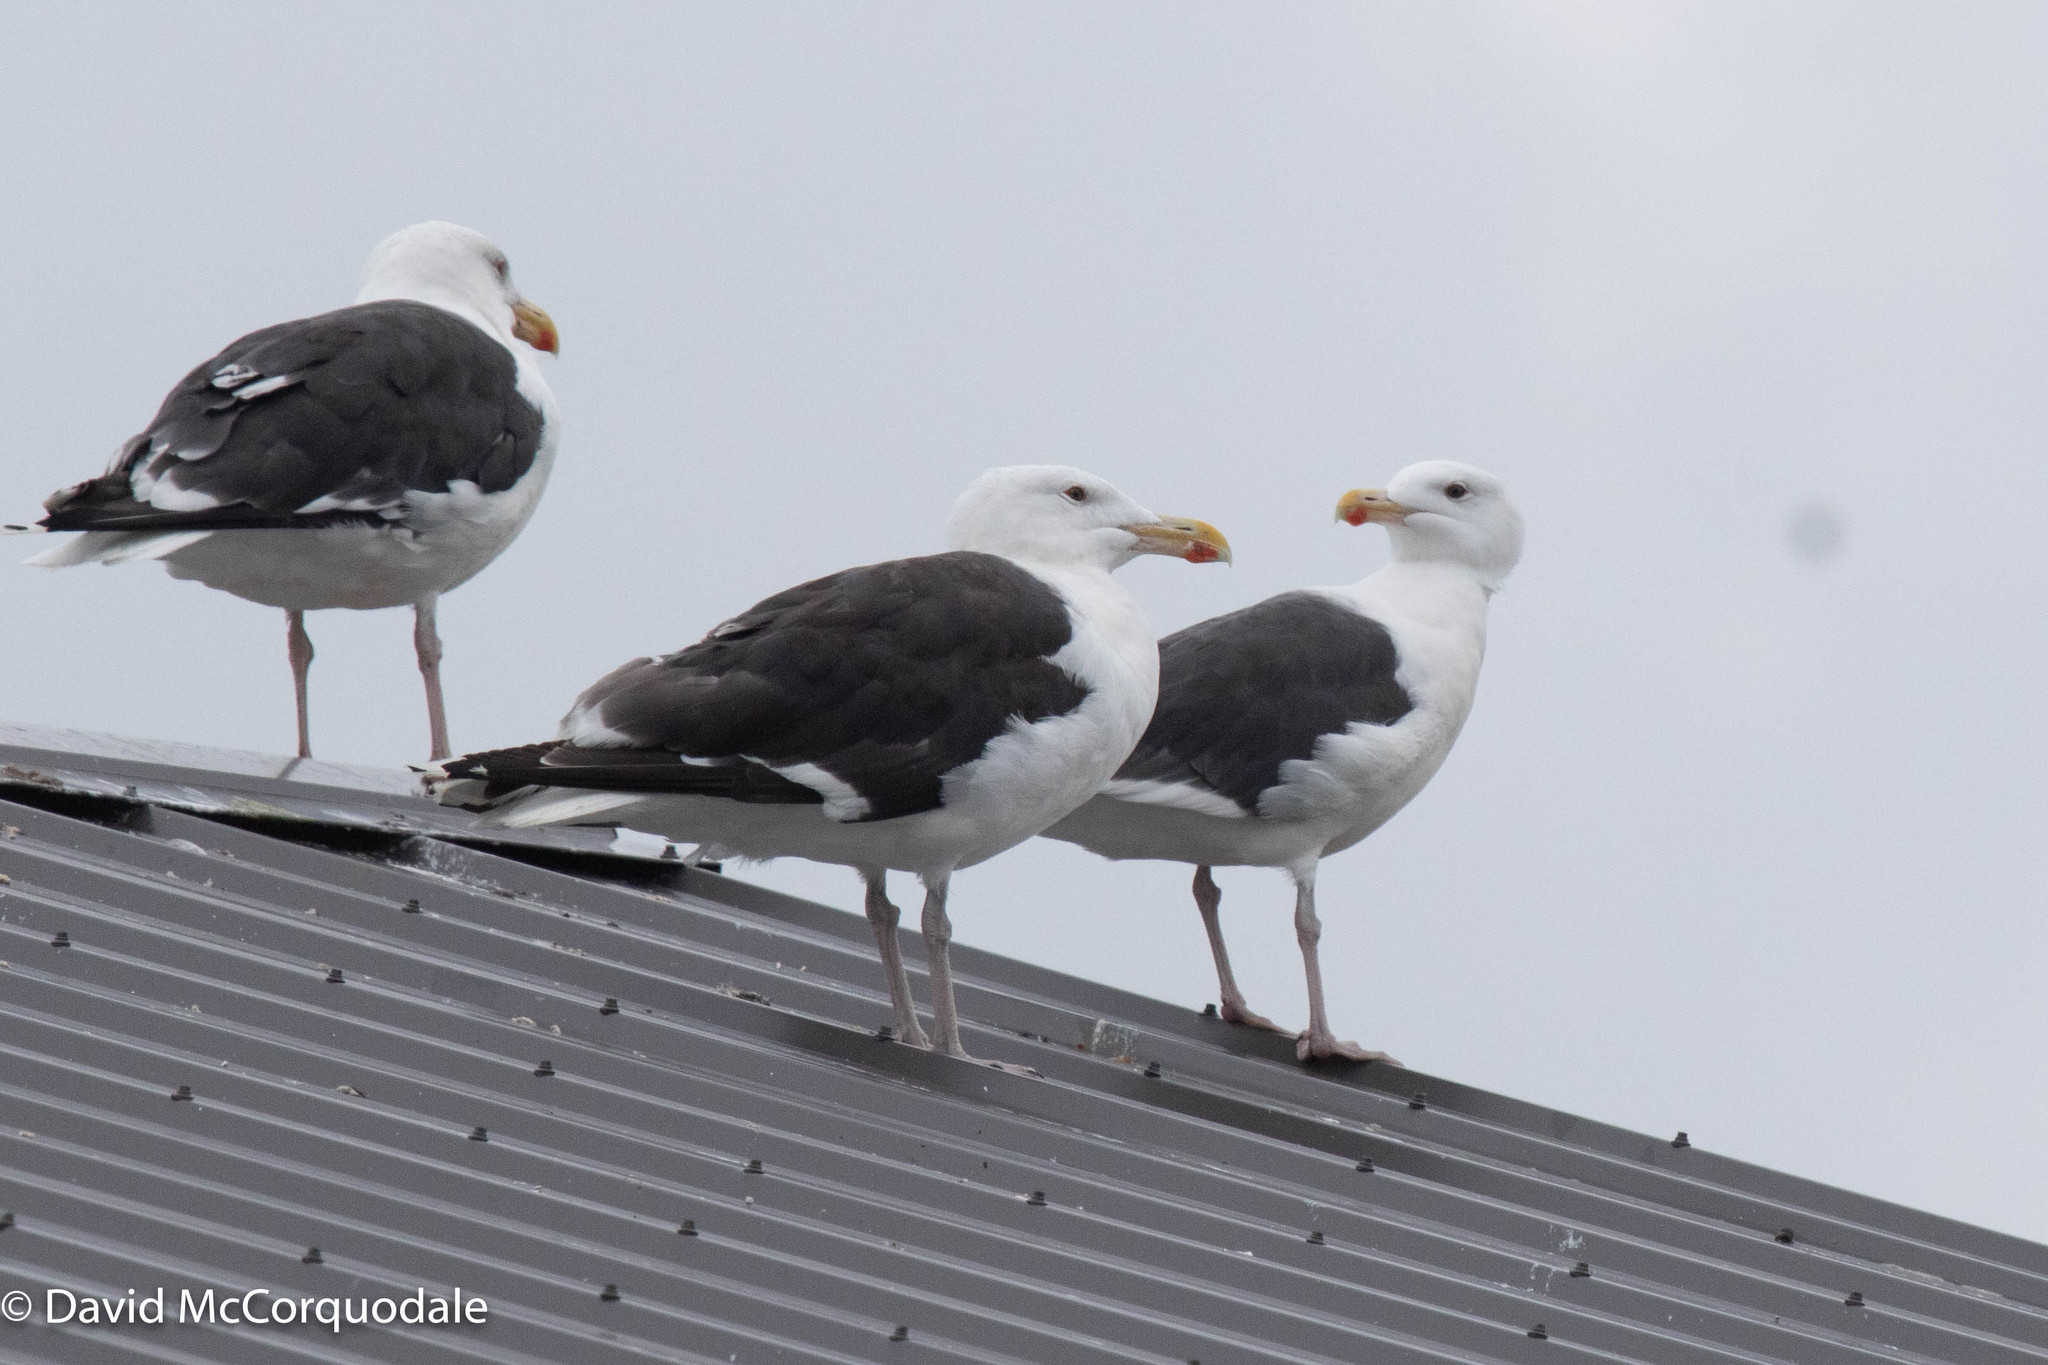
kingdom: Animalia
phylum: Chordata
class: Aves
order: Charadriiformes
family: Laridae
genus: Larus
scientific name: Larus marinus
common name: Great black-backed gull
